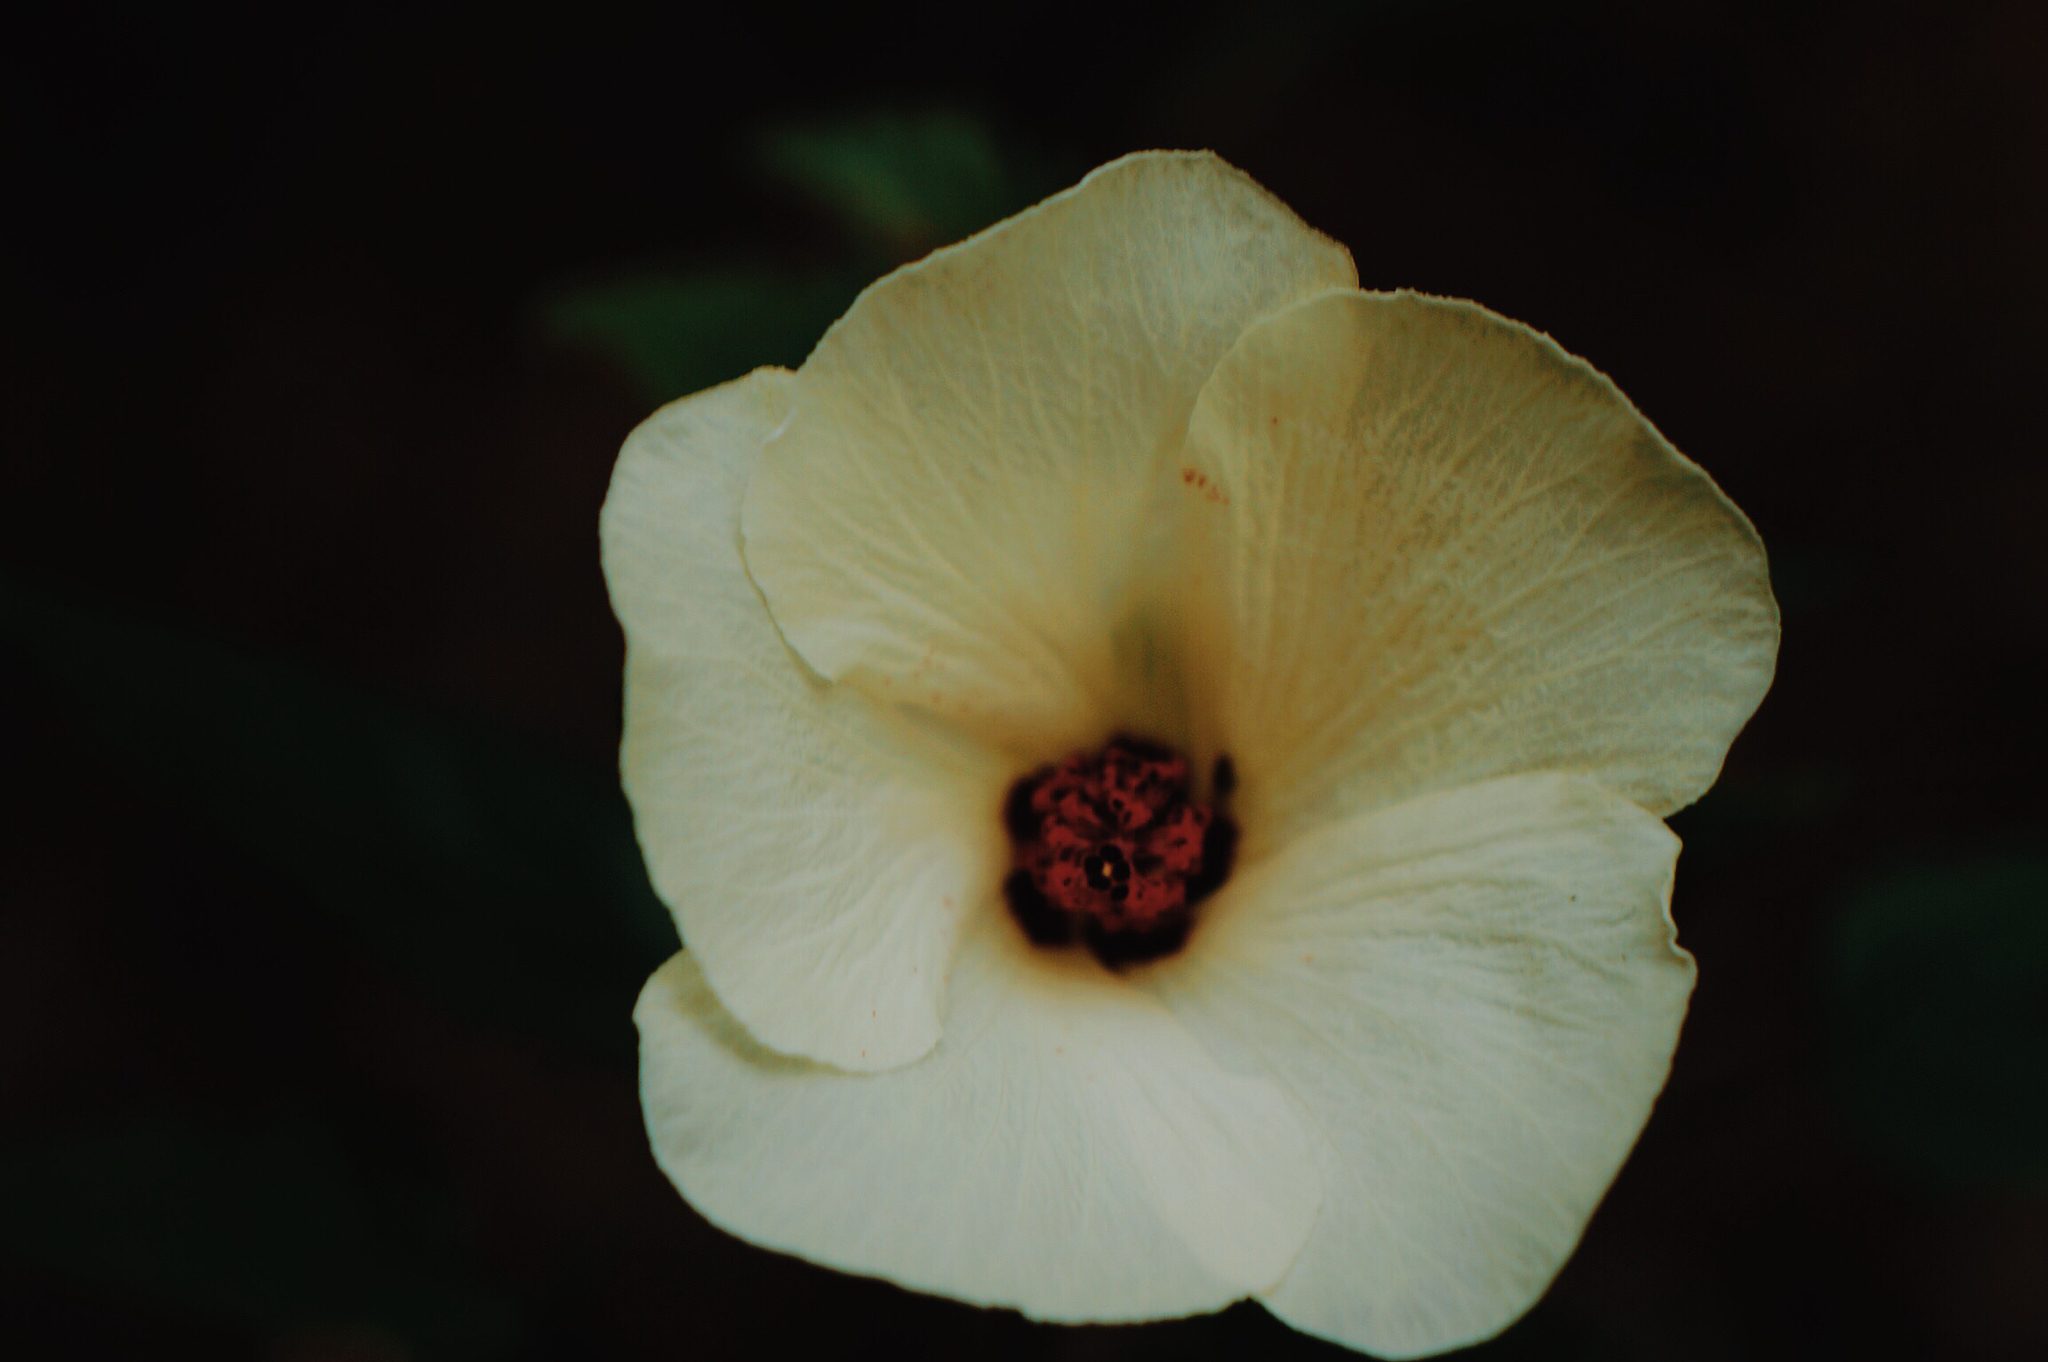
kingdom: Plantae
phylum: Tracheophyta
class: Magnoliopsida
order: Malvales
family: Malvaceae
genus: Hibiscus
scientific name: Hibiscus acicularis
